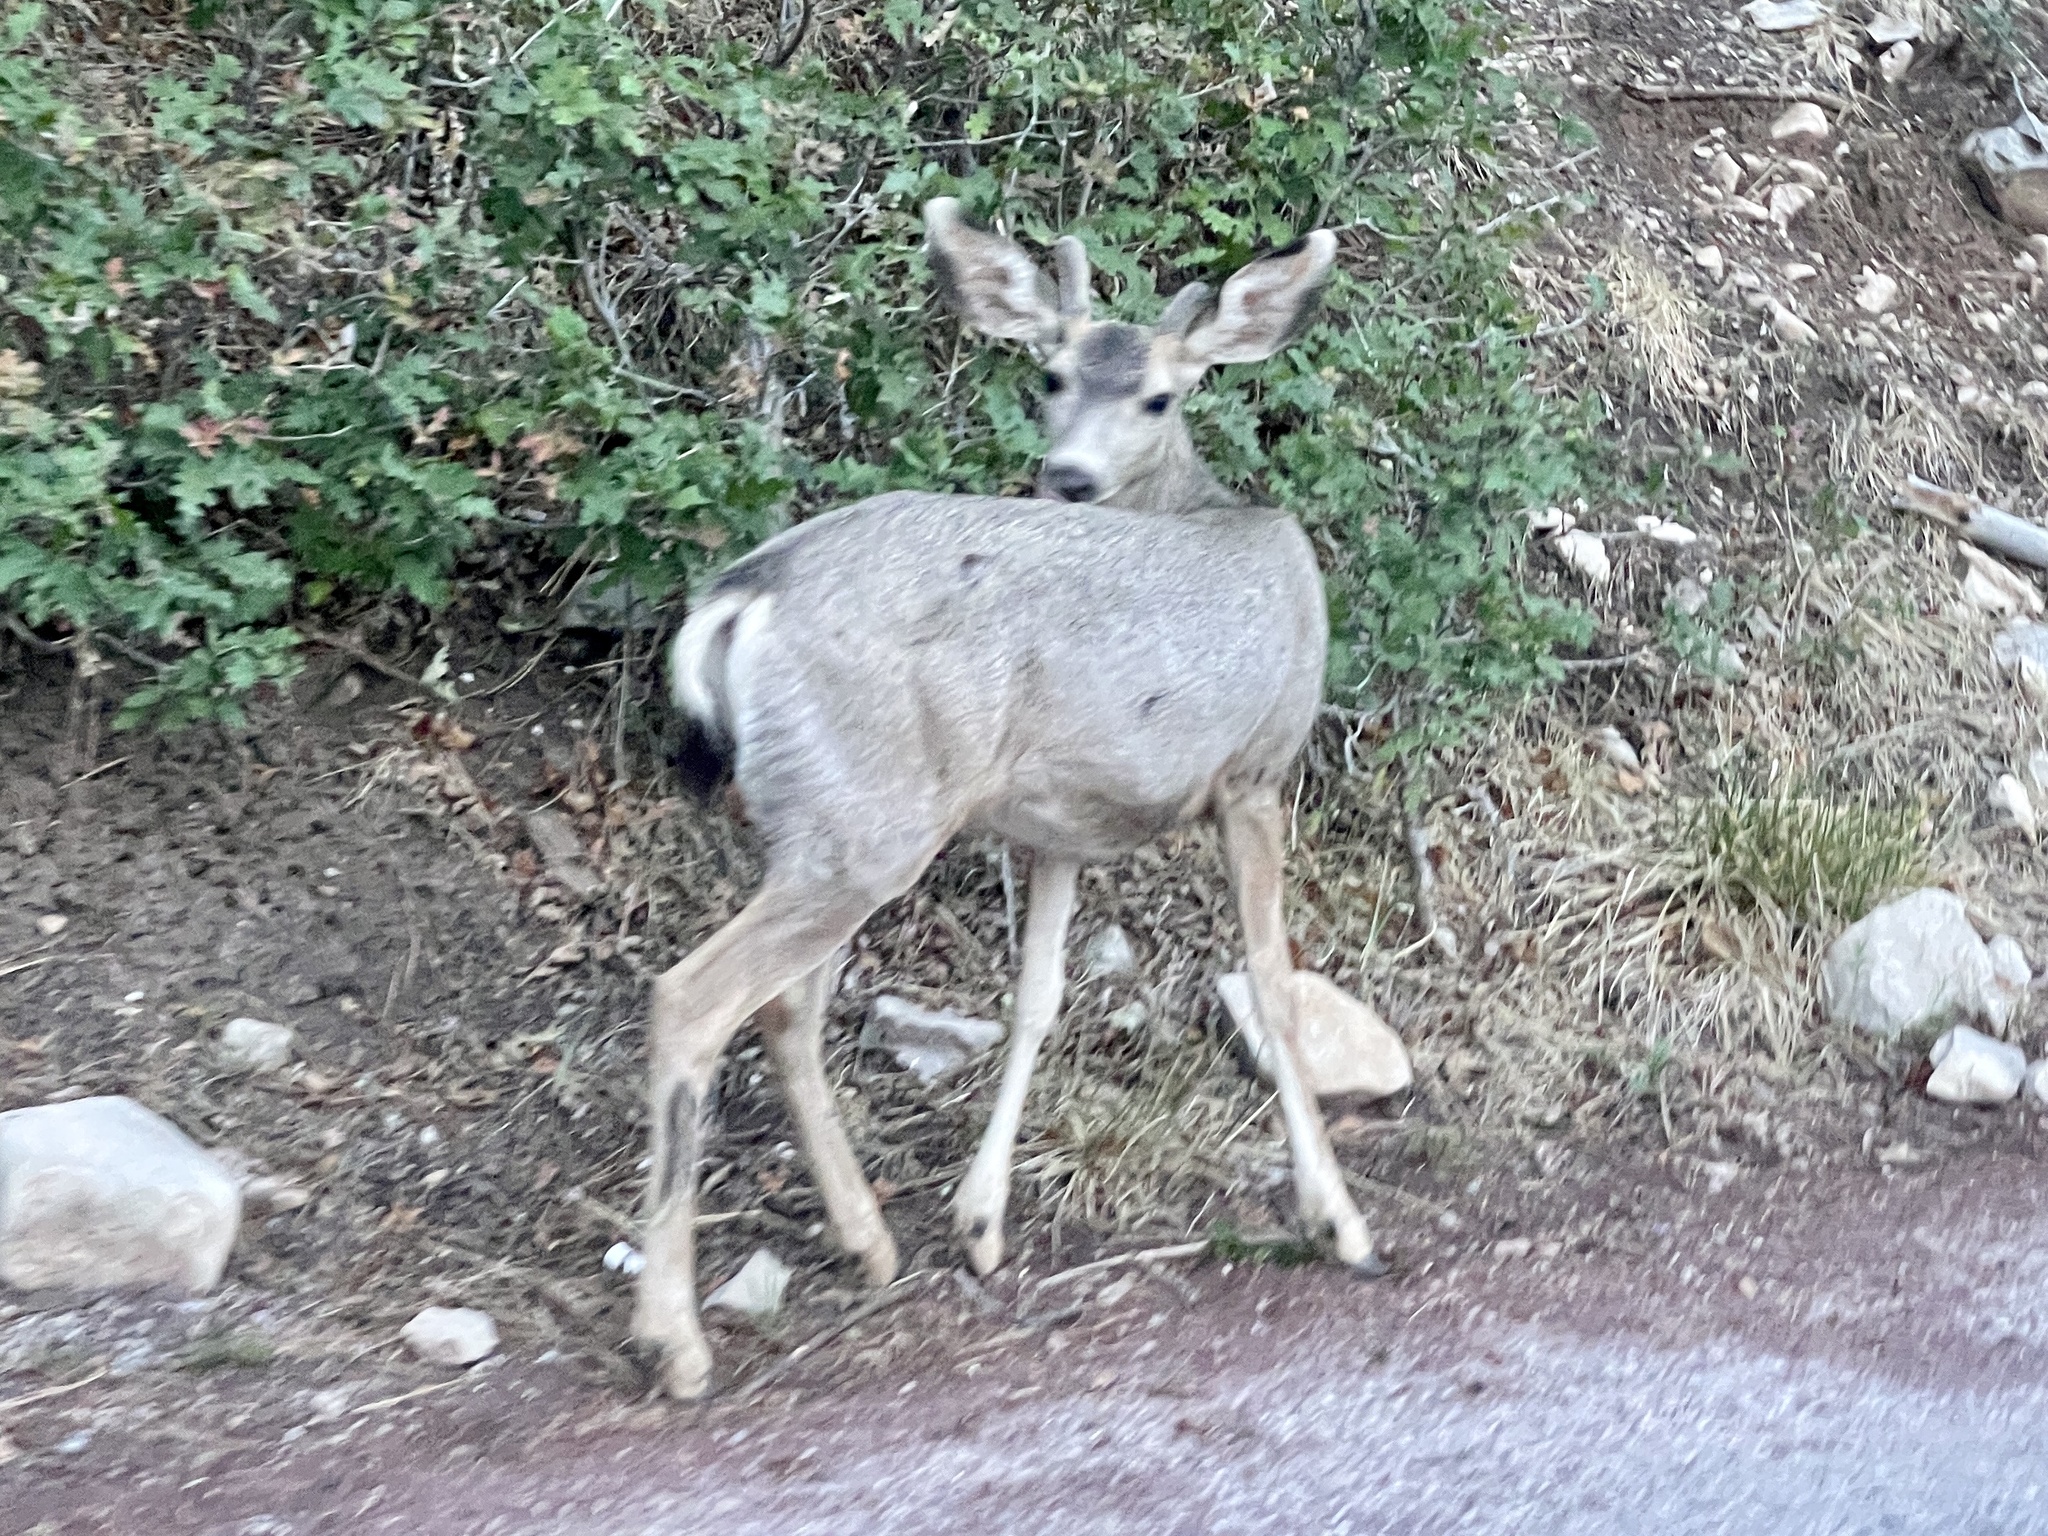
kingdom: Animalia
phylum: Chordata
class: Mammalia
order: Artiodactyla
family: Cervidae
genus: Odocoileus
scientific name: Odocoileus hemionus
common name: Mule deer
